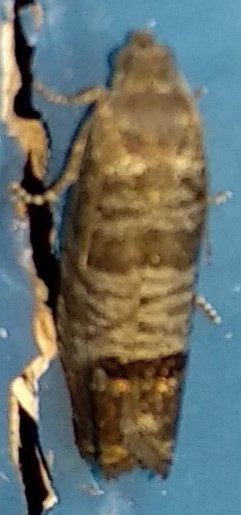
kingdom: Animalia
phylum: Arthropoda
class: Insecta
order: Lepidoptera
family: Tortricidae
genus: Cydia
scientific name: Cydia pomonella
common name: Codling moth
